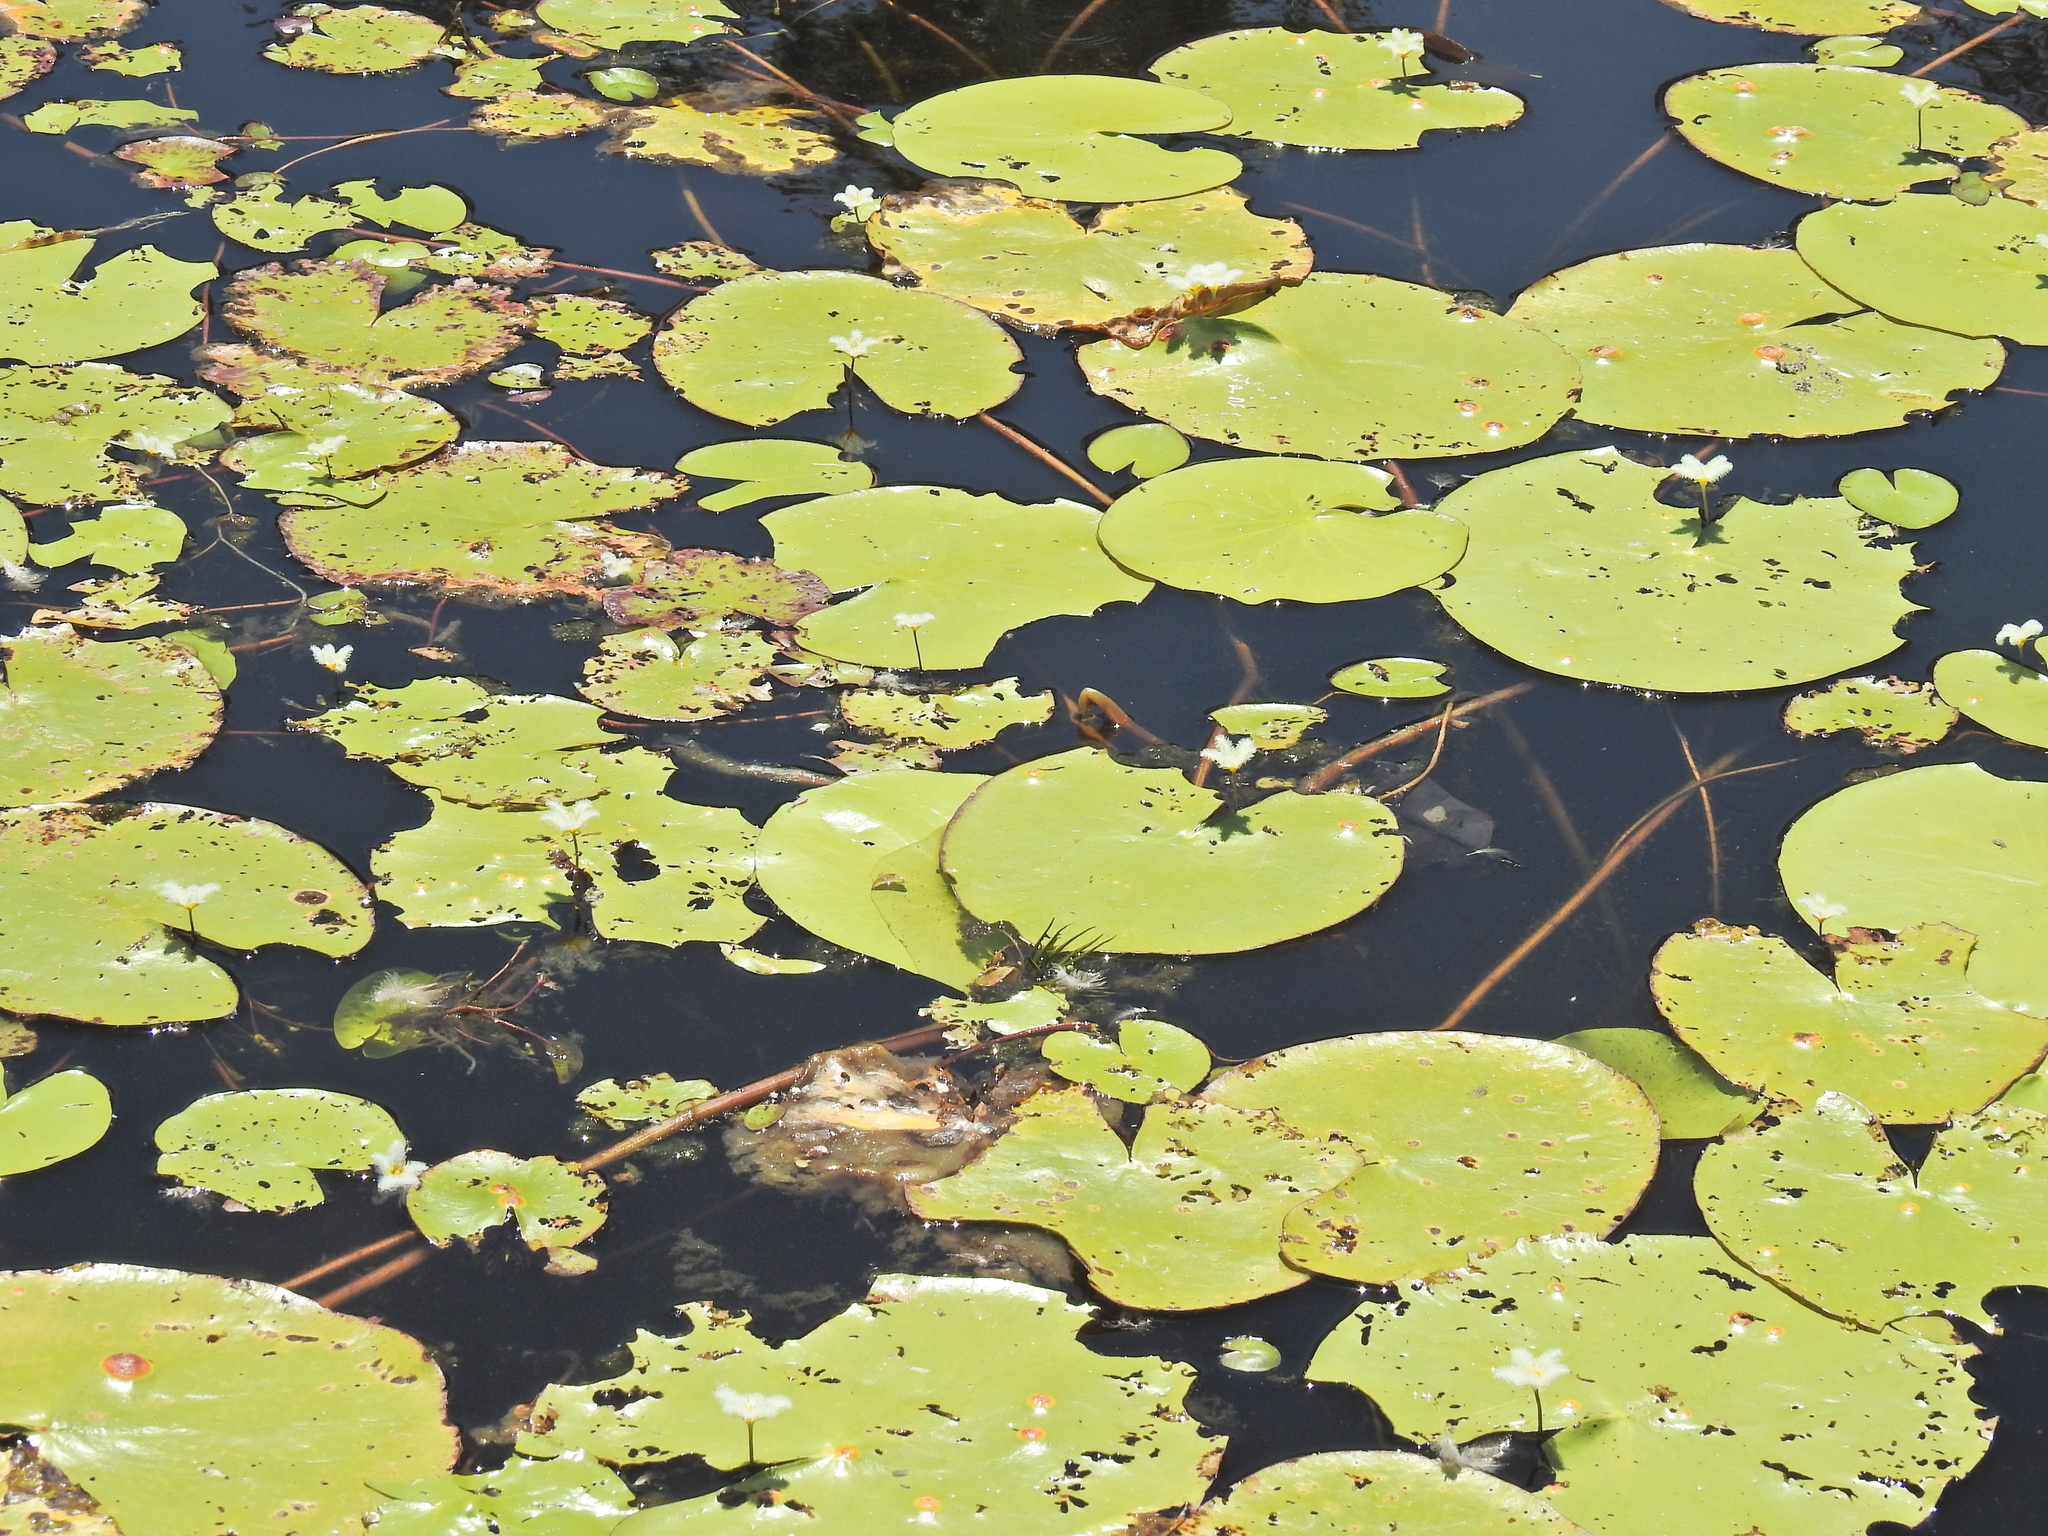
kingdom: Plantae
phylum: Tracheophyta
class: Magnoliopsida
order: Asterales
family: Menyanthaceae
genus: Nymphoides
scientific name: Nymphoides indica
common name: Water-snowflake
